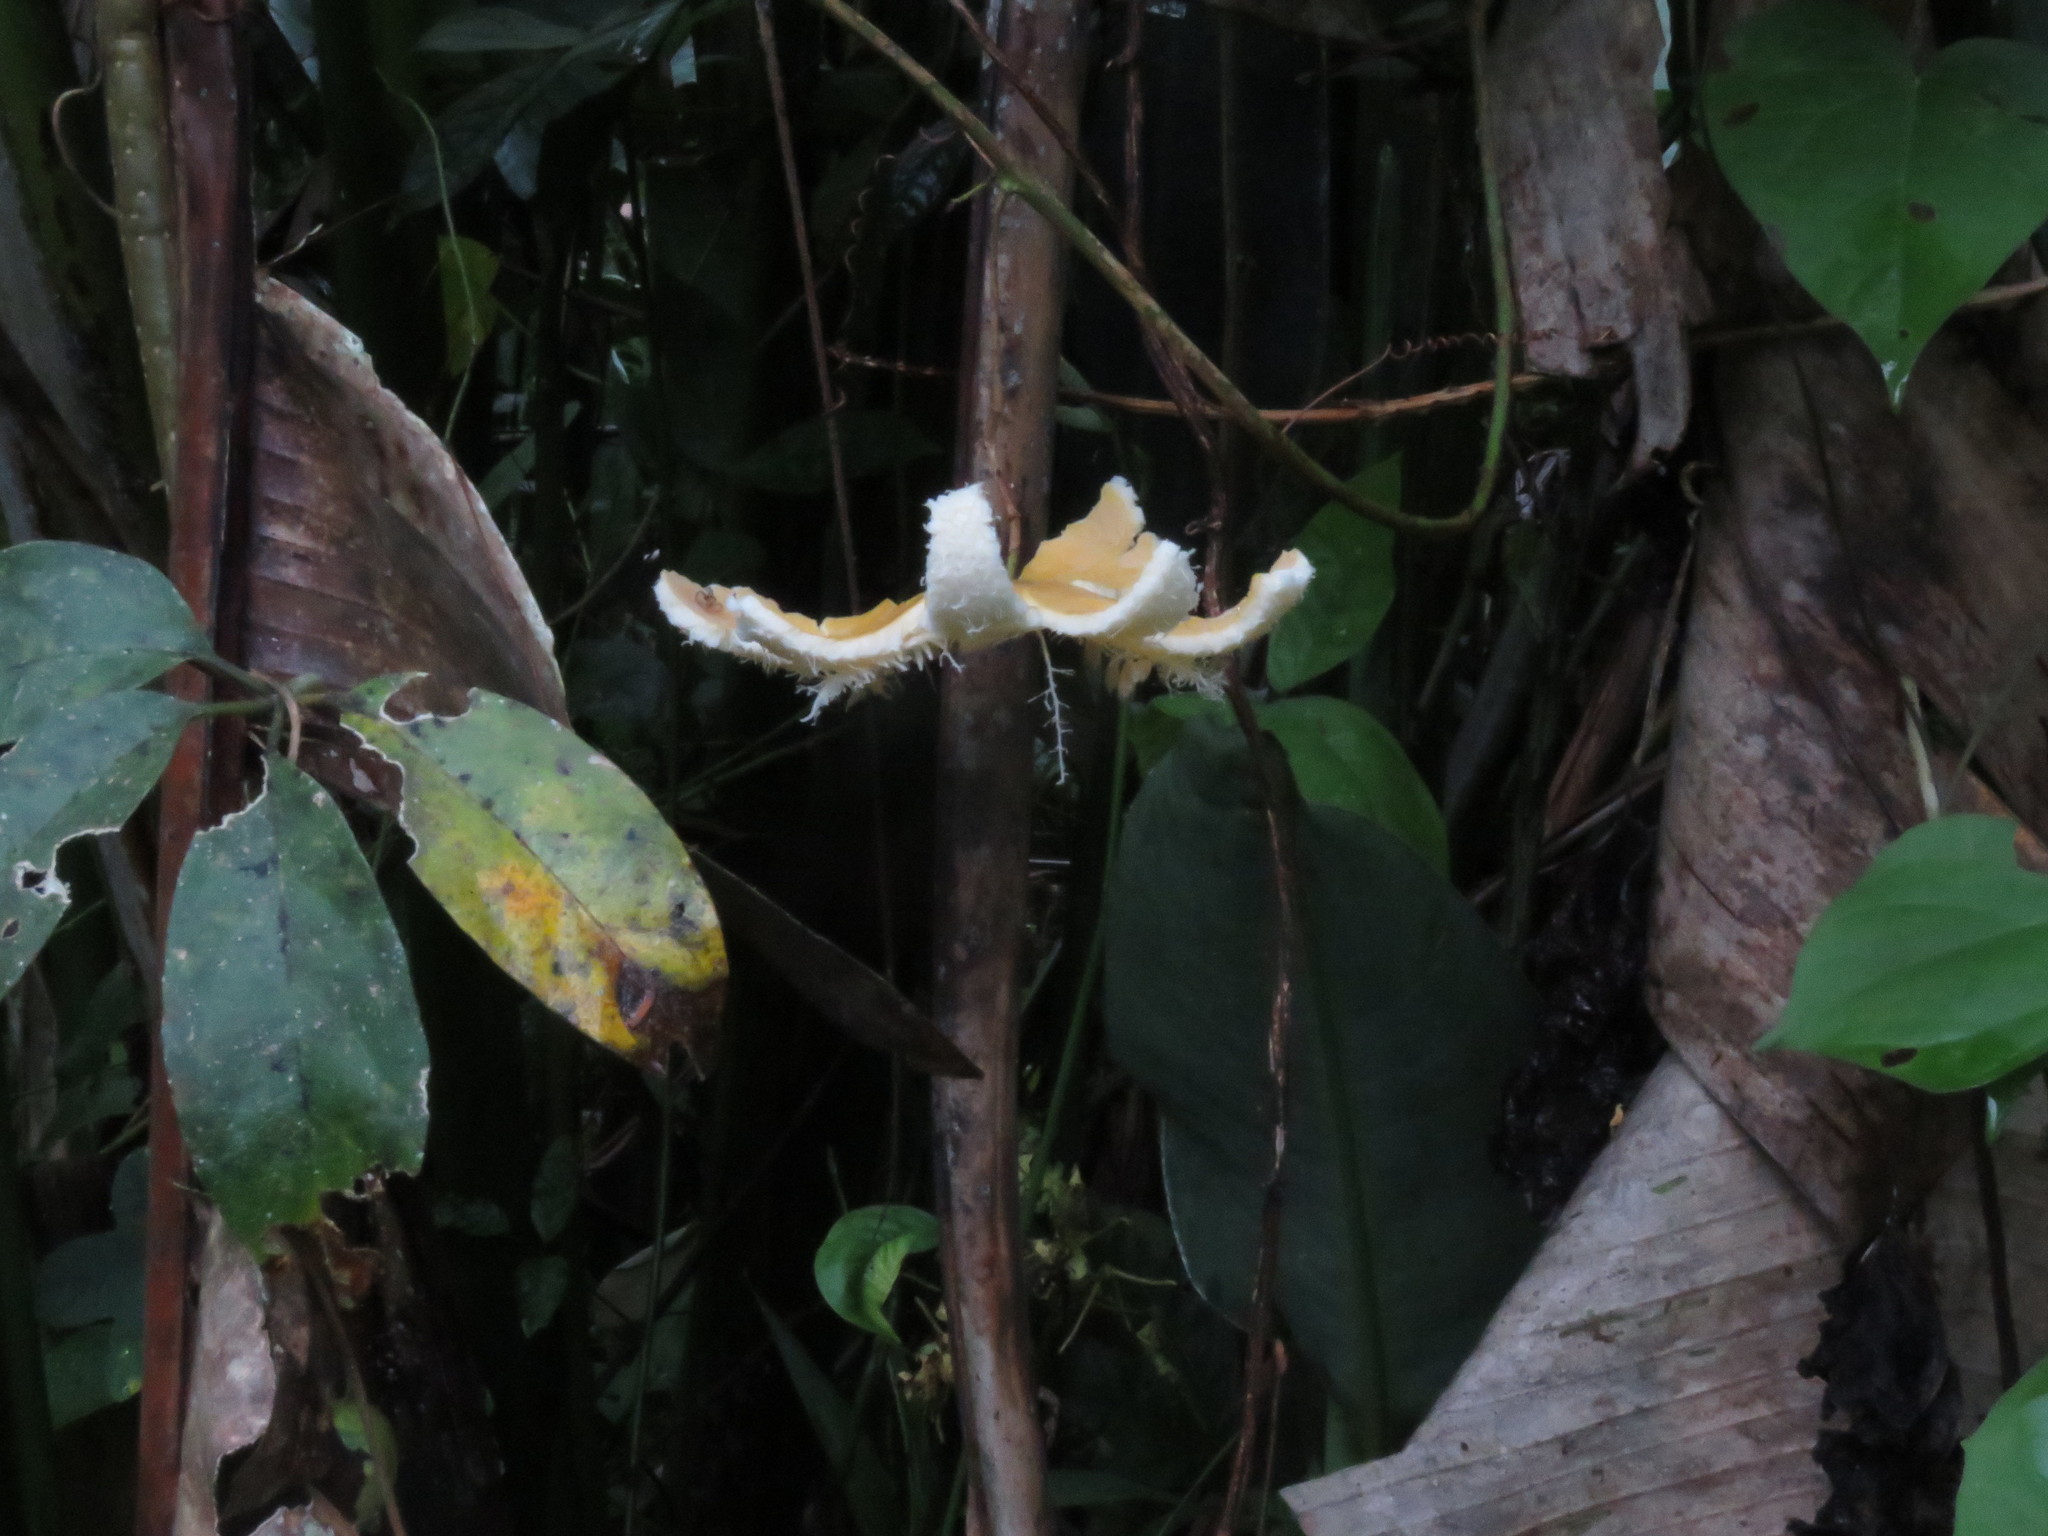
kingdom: Plantae
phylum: Tracheophyta
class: Magnoliopsida
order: Malpighiales
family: Passifloraceae
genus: Passiflora
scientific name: Passiflora tenuifila
